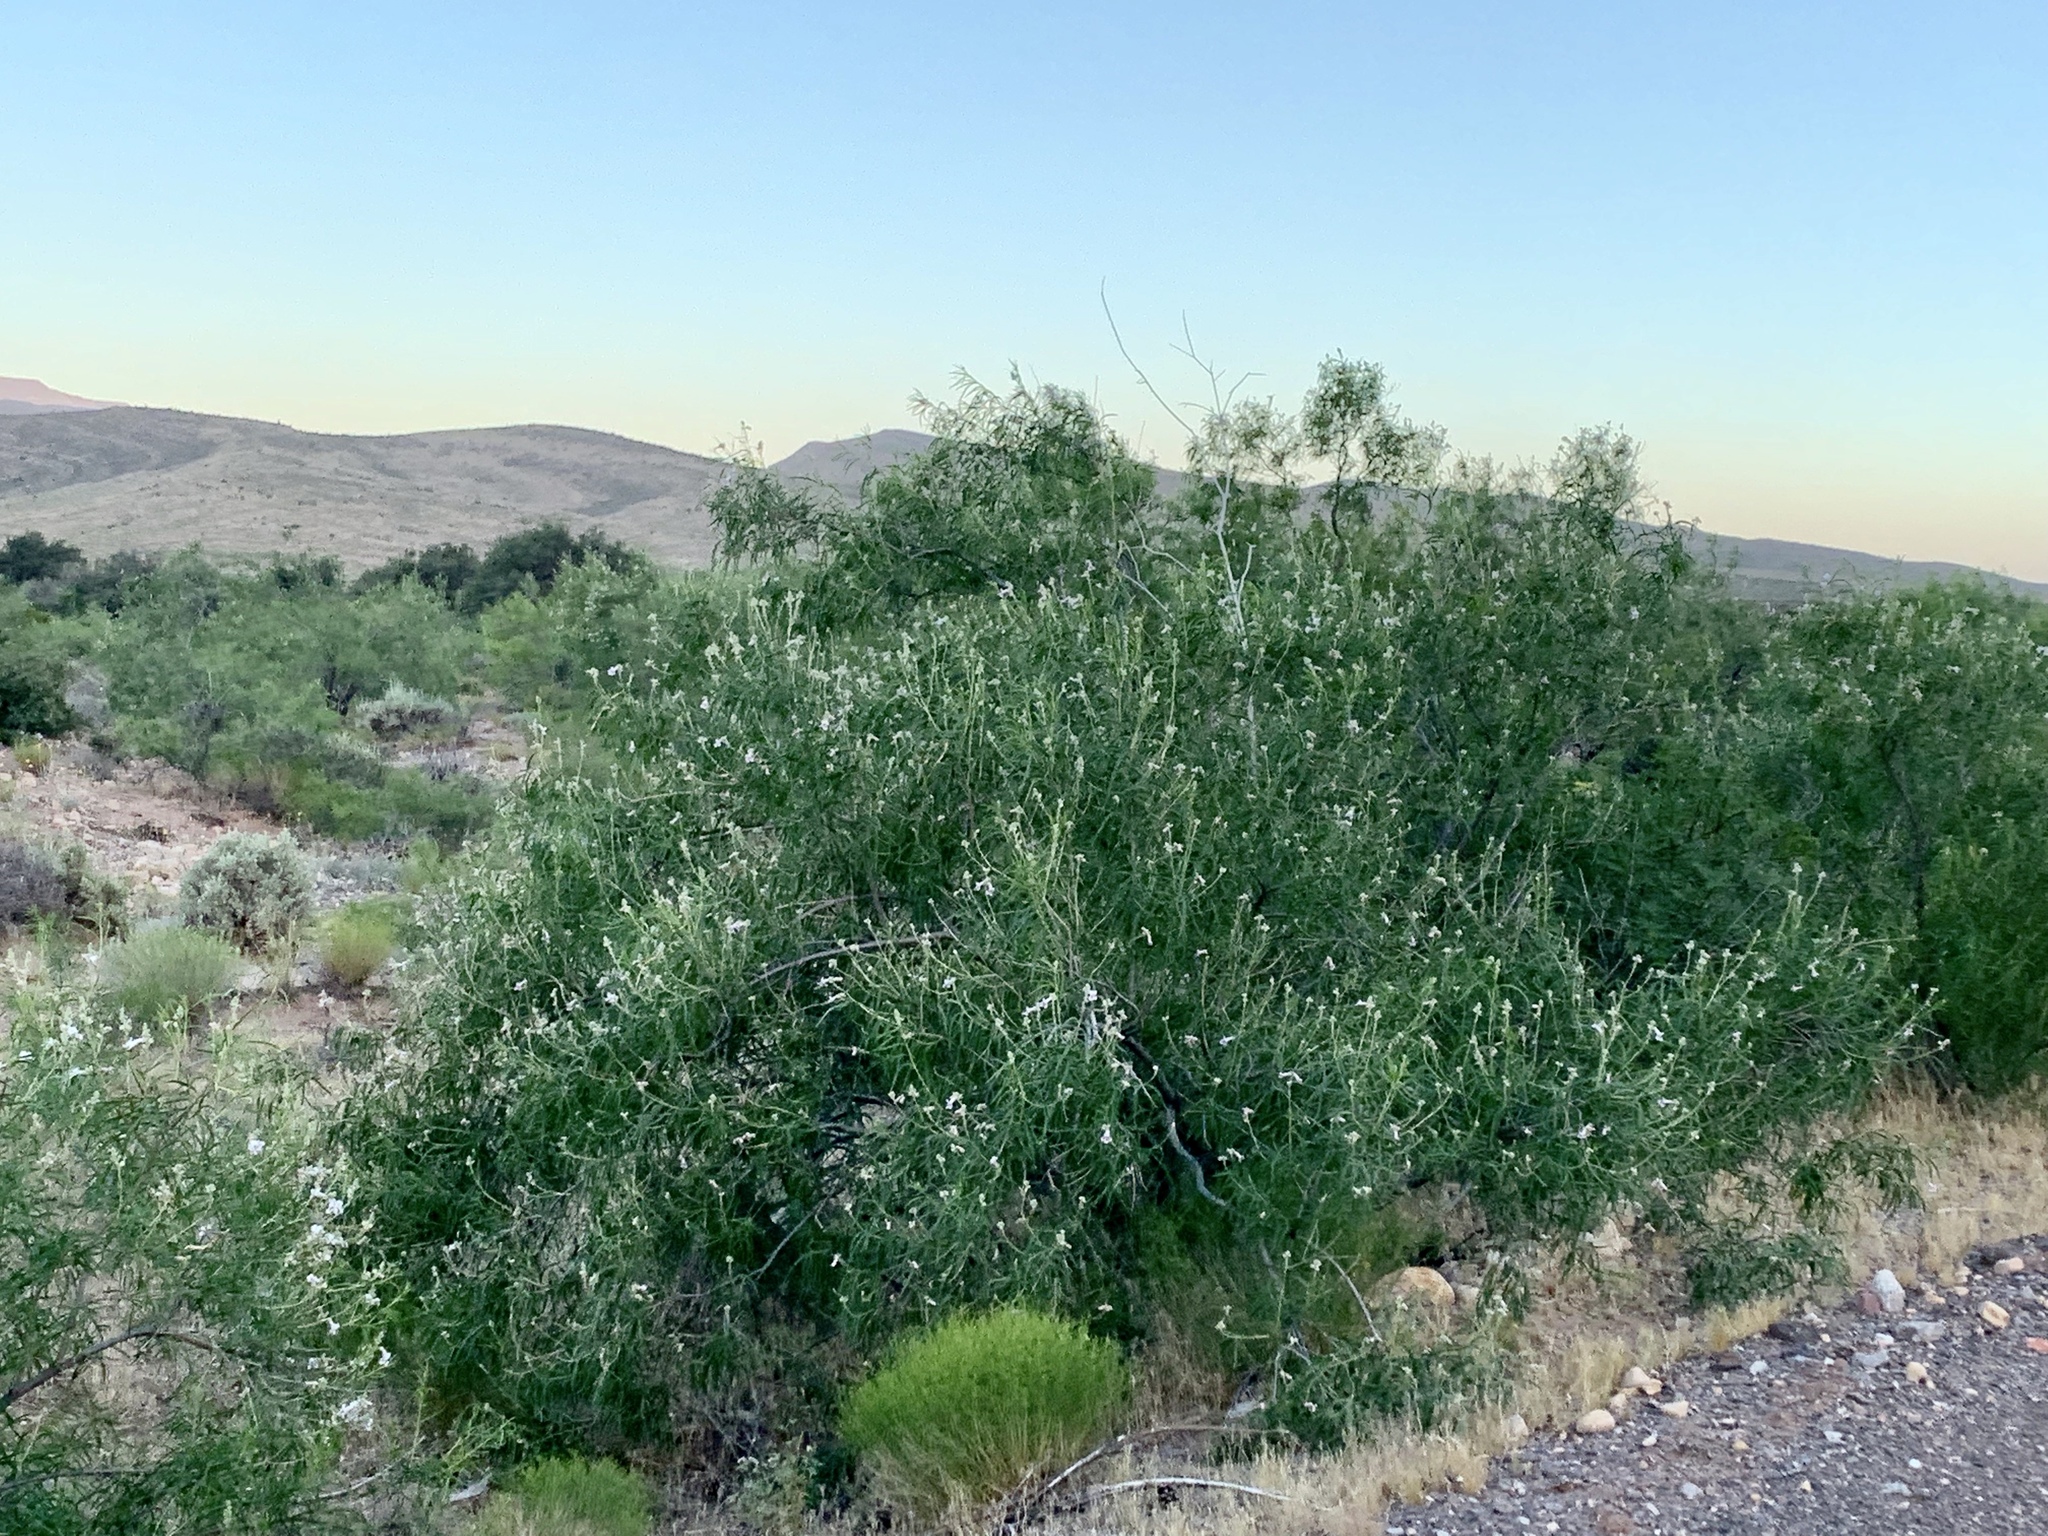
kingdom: Plantae
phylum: Tracheophyta
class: Magnoliopsida
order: Lamiales
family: Bignoniaceae
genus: Chilopsis
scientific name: Chilopsis linearis
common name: Desert-willow
